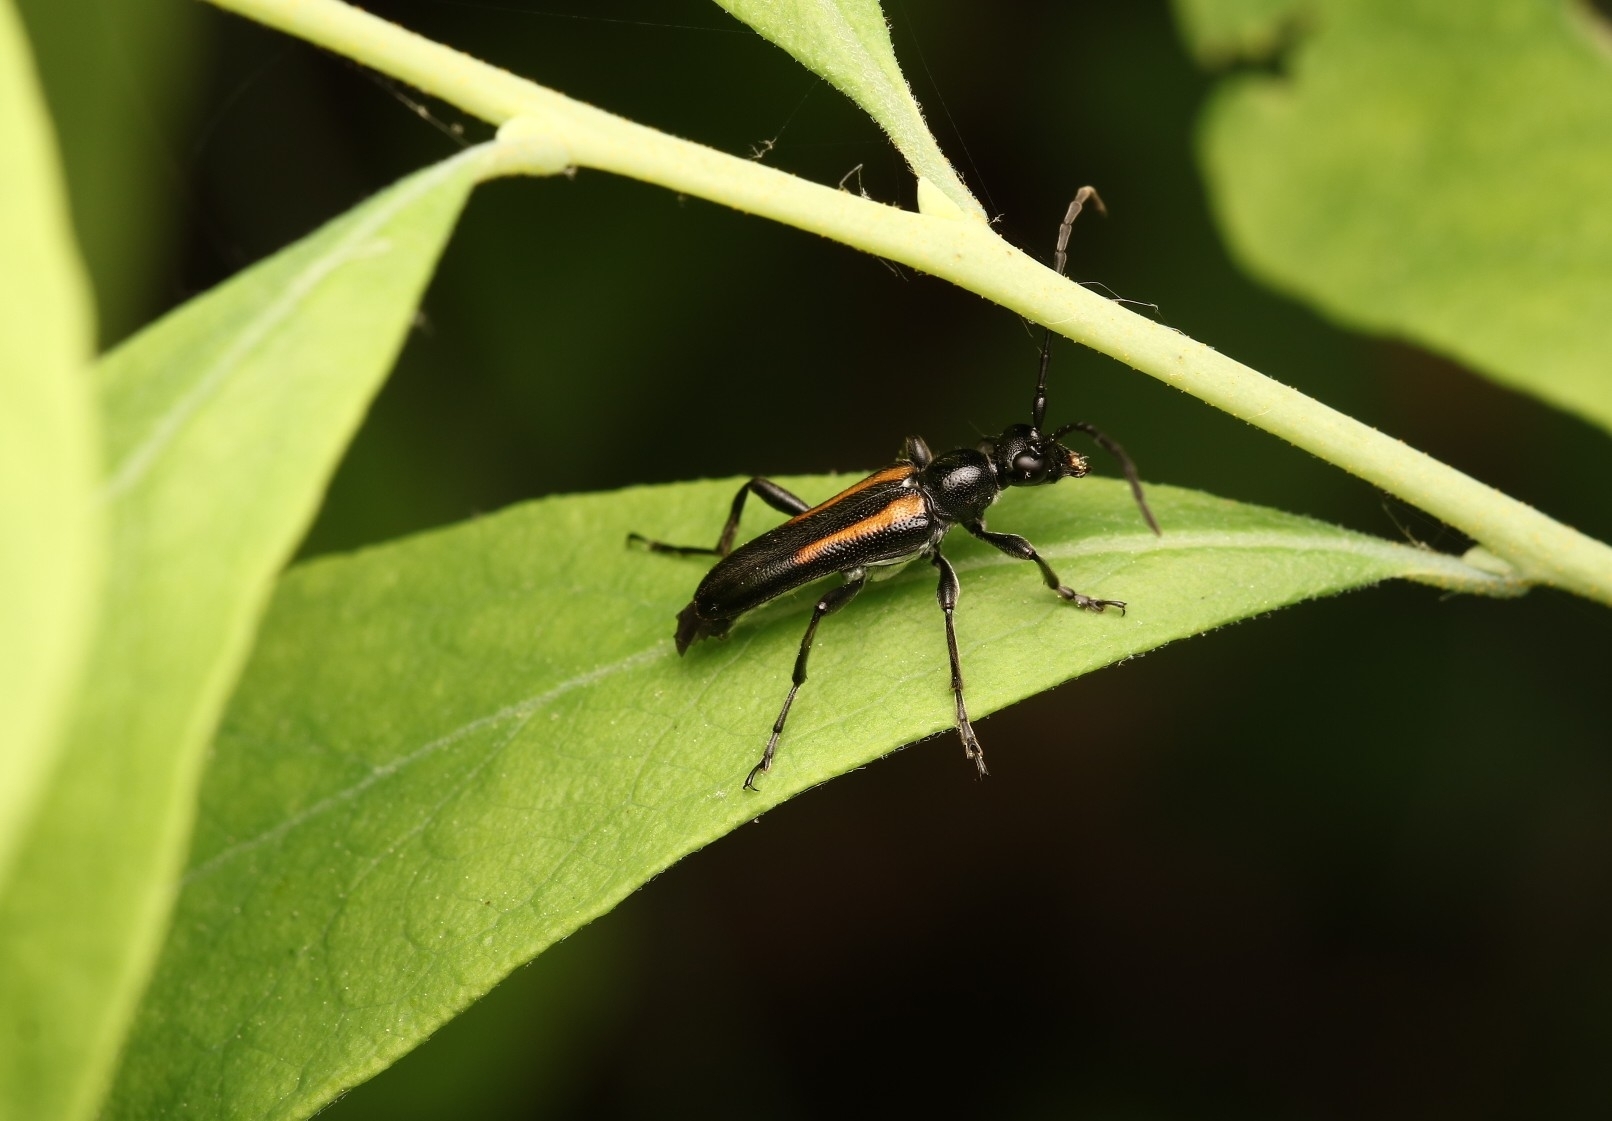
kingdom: Animalia
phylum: Arthropoda
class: Insecta
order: Coleoptera
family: Cerambycidae
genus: Strangalepta
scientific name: Strangalepta abbreviata
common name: Strangalepta flower longhorn beetle
